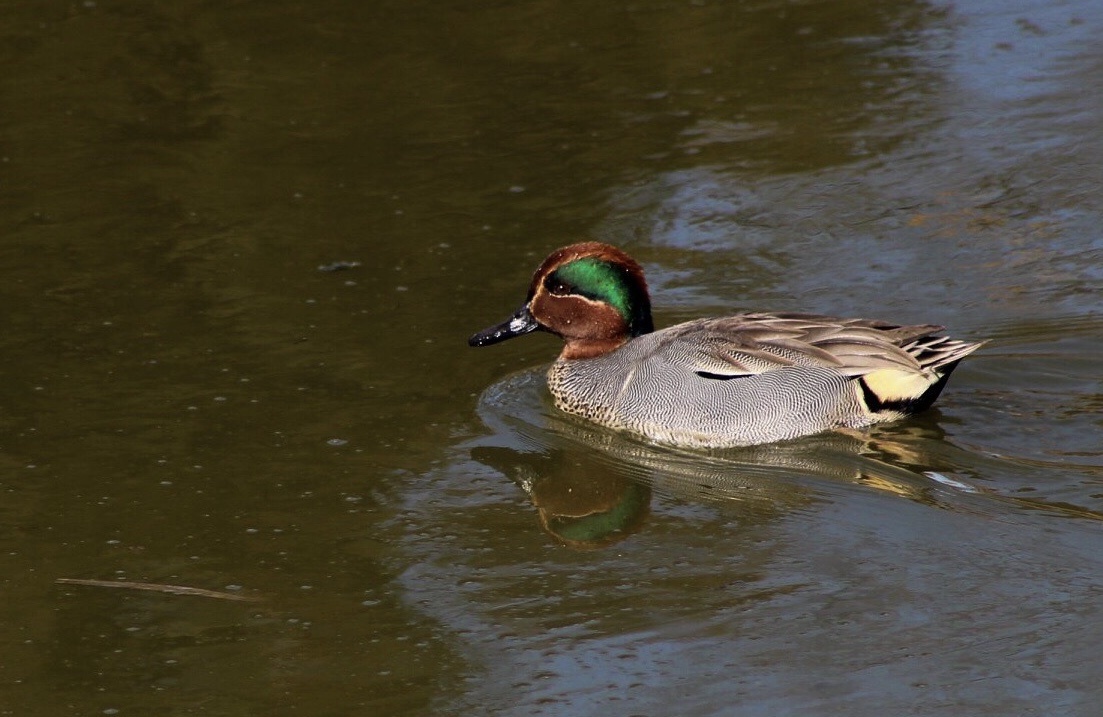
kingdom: Animalia
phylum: Chordata
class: Aves
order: Anseriformes
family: Anatidae
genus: Anas
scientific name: Anas crecca
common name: Eurasian teal
